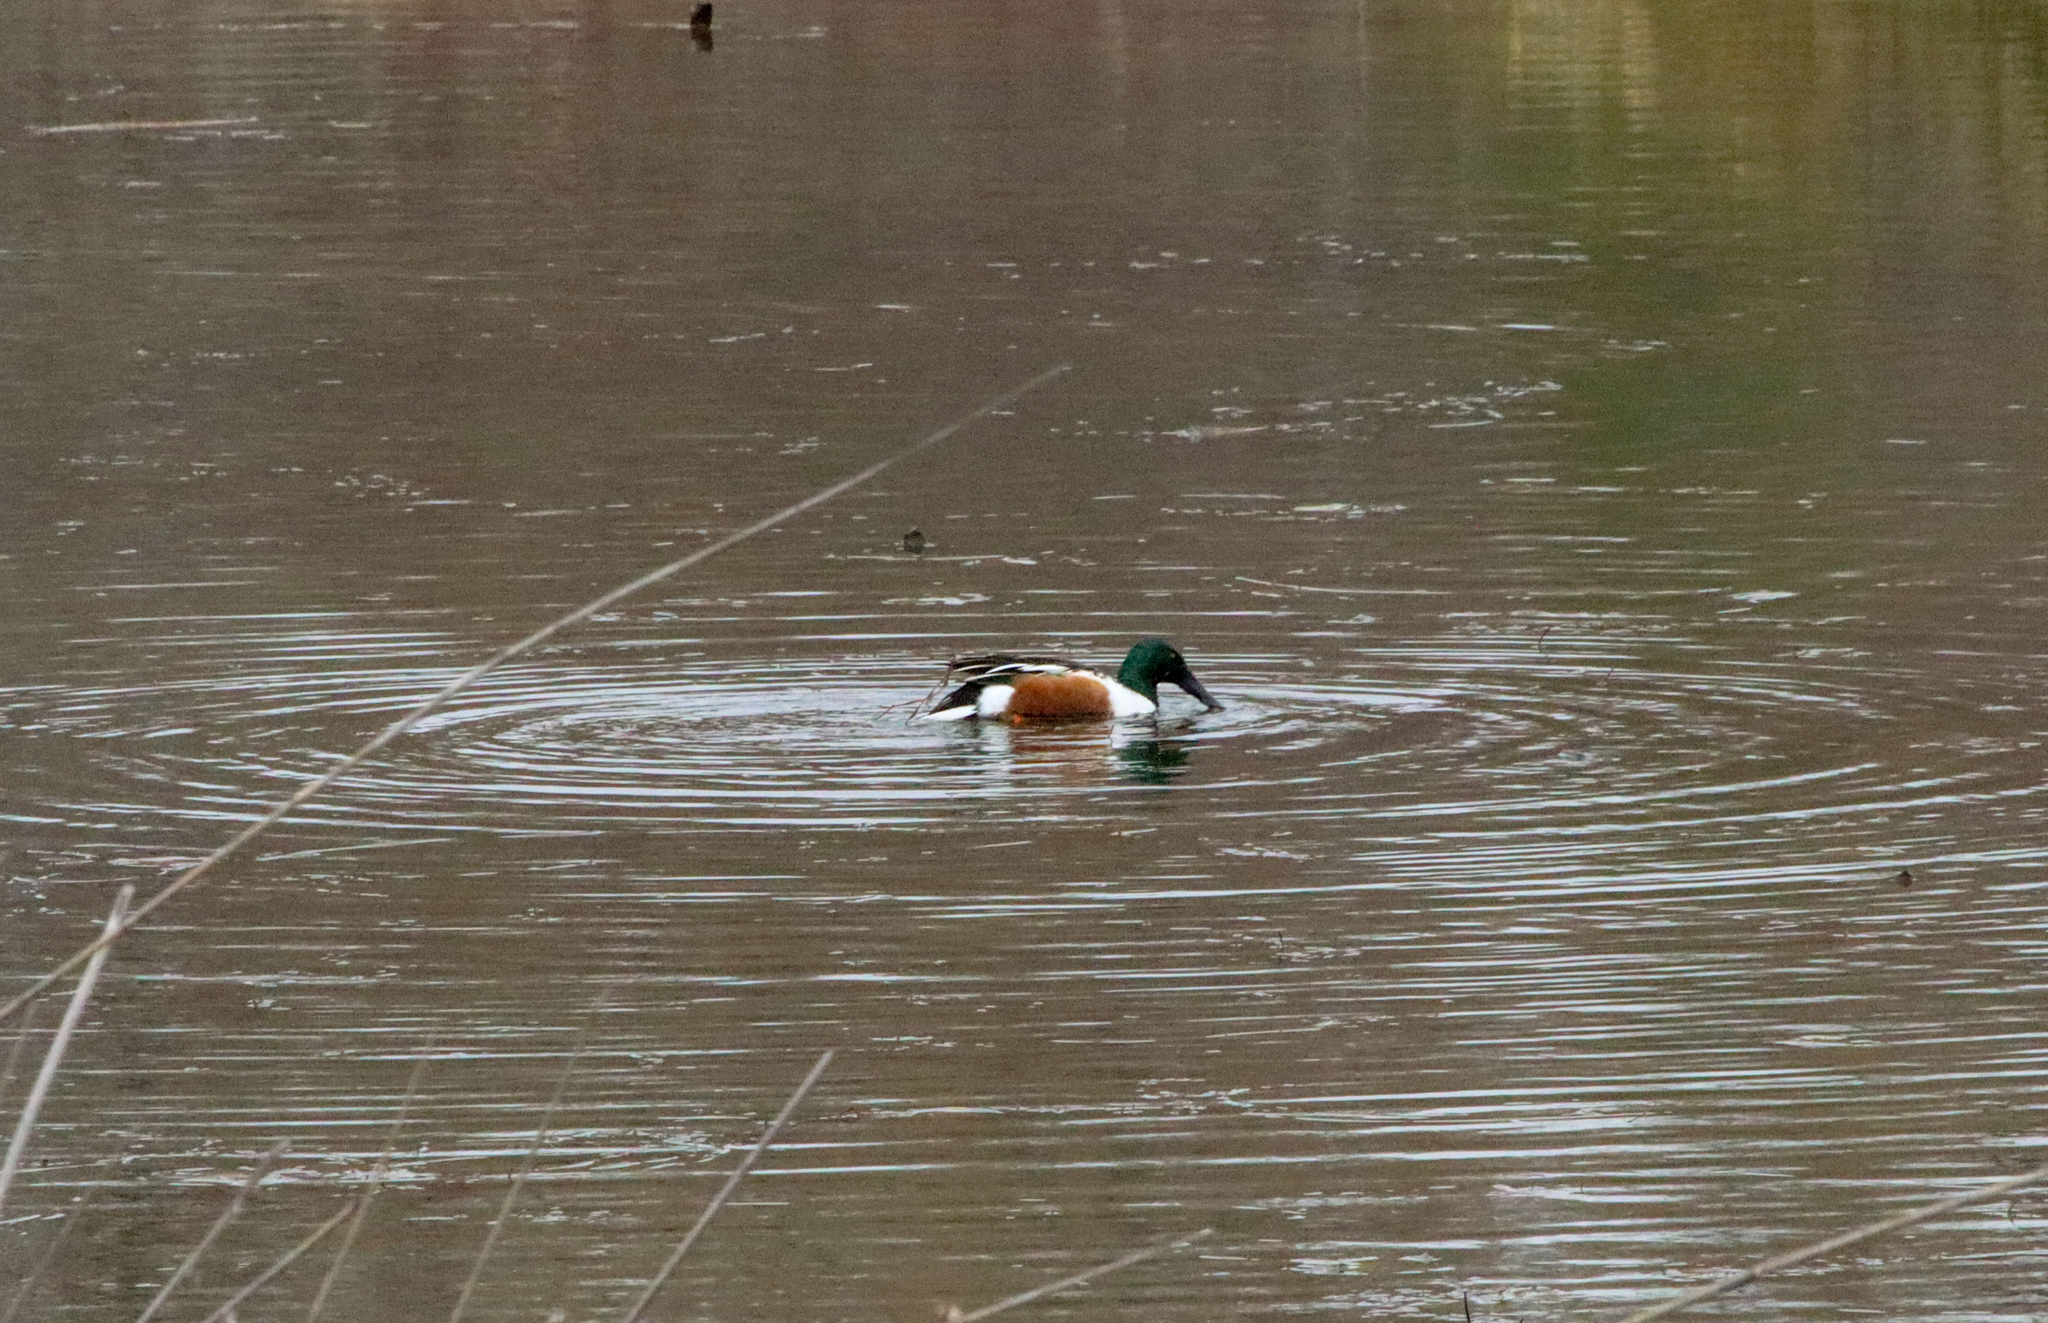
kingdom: Animalia
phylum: Chordata
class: Aves
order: Anseriformes
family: Anatidae
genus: Spatula
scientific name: Spatula clypeata
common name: Northern shoveler
